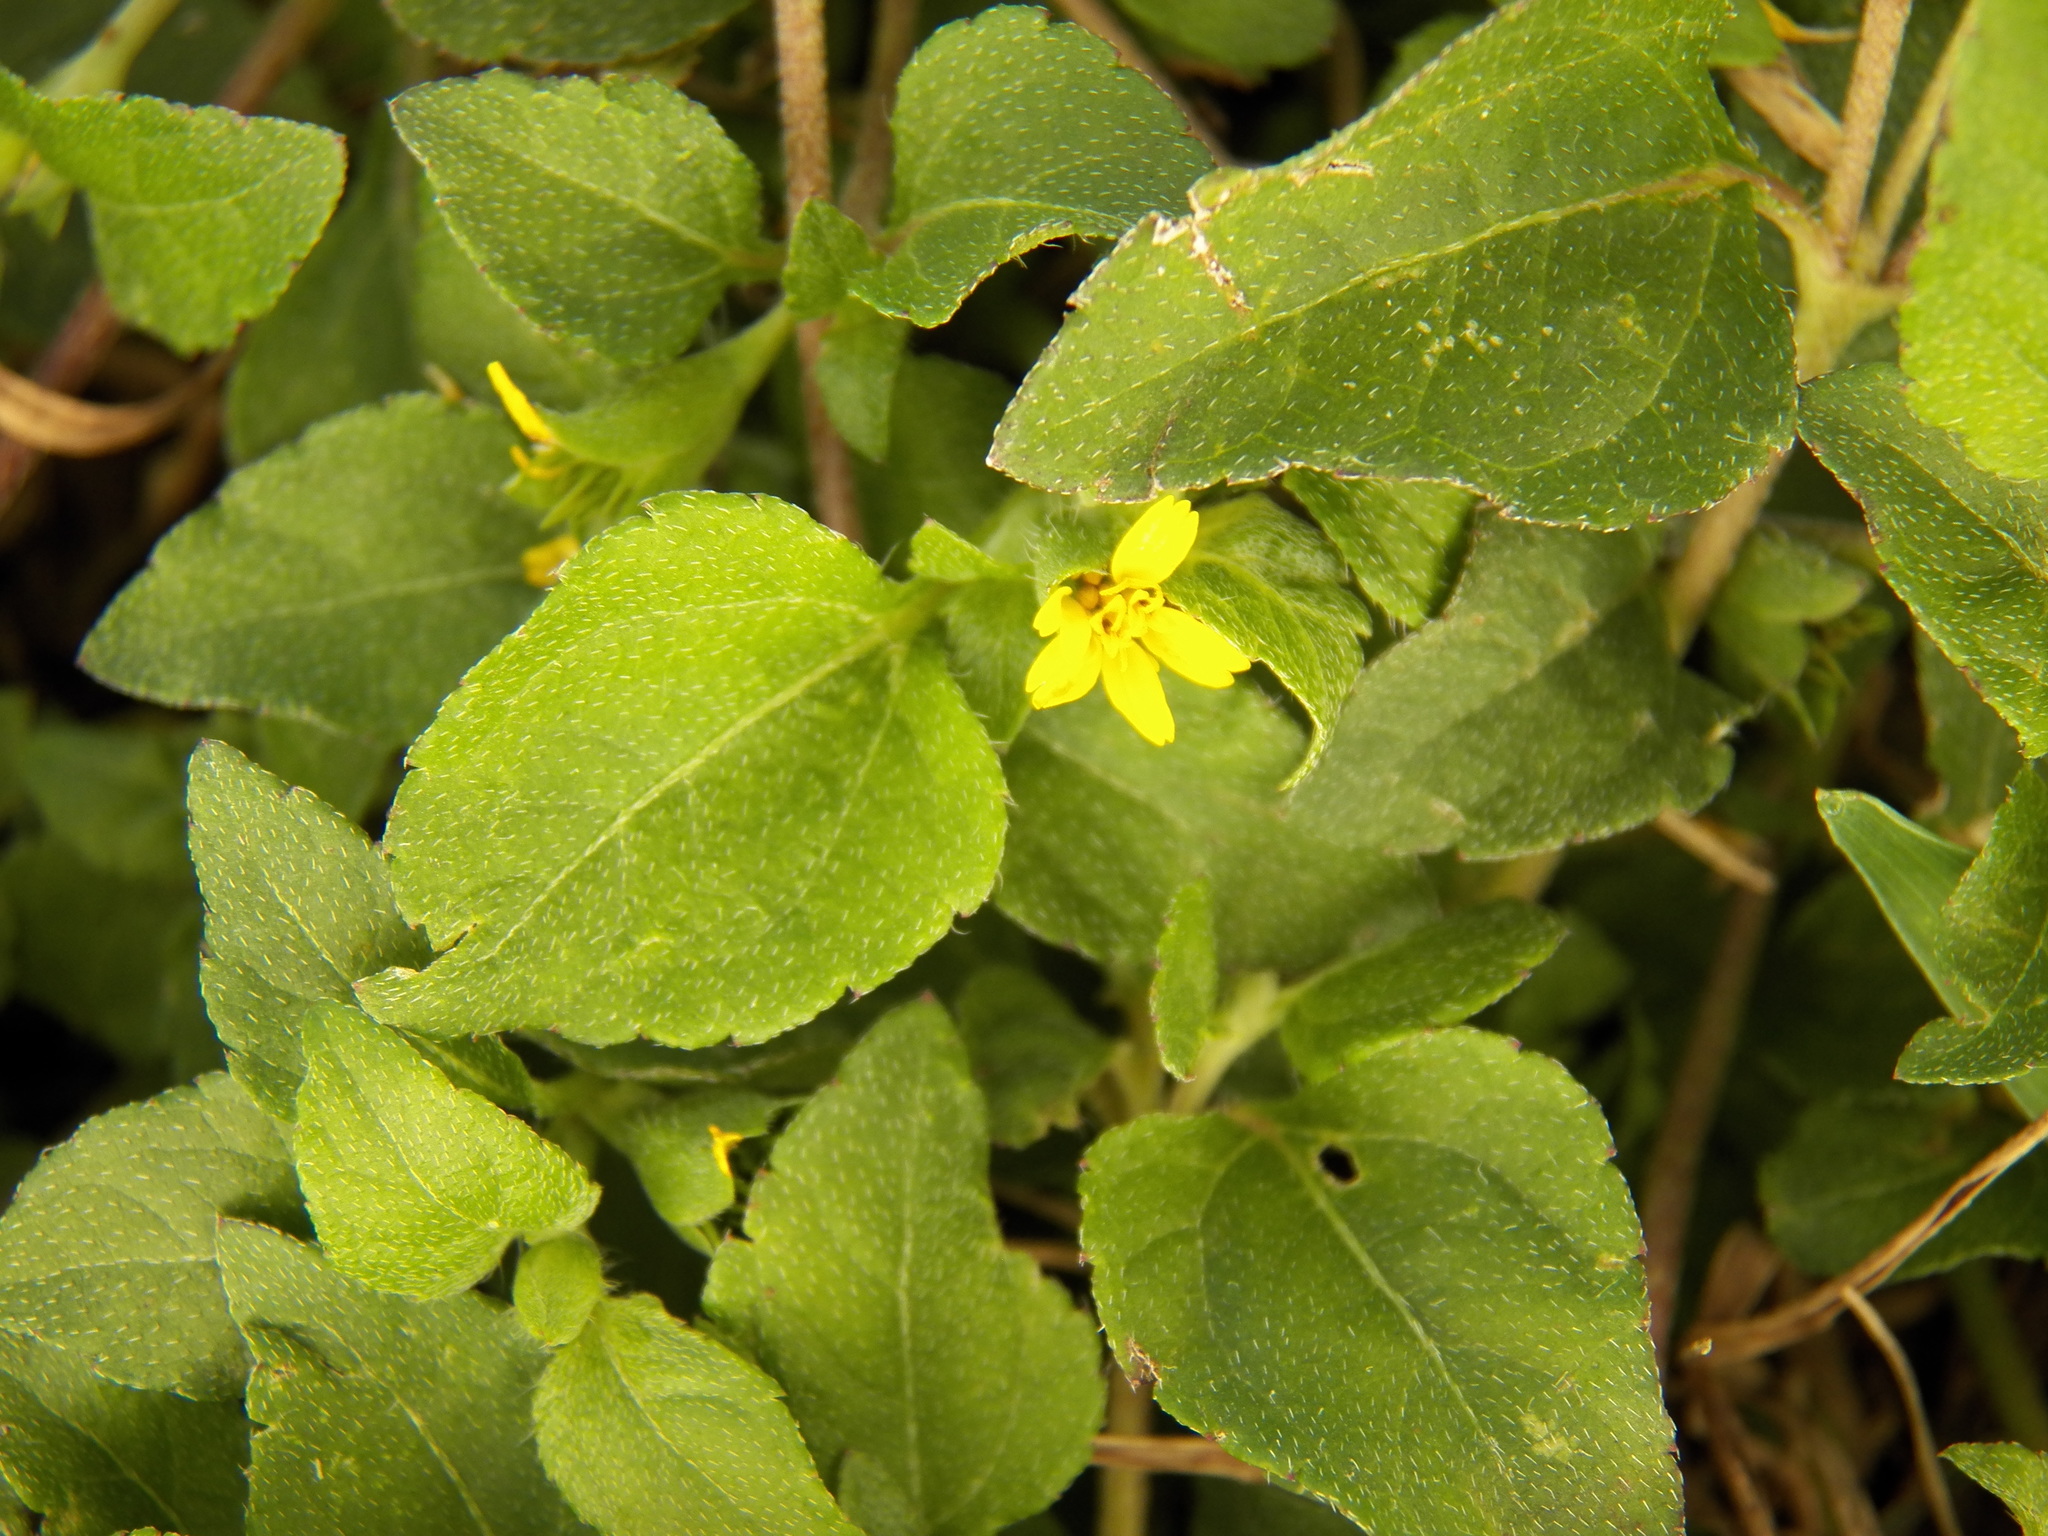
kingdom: Plantae
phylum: Tracheophyta
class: Magnoliopsida
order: Asterales
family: Asteraceae
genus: Calyptocarpus
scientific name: Calyptocarpus vialis
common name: Straggler daisy
